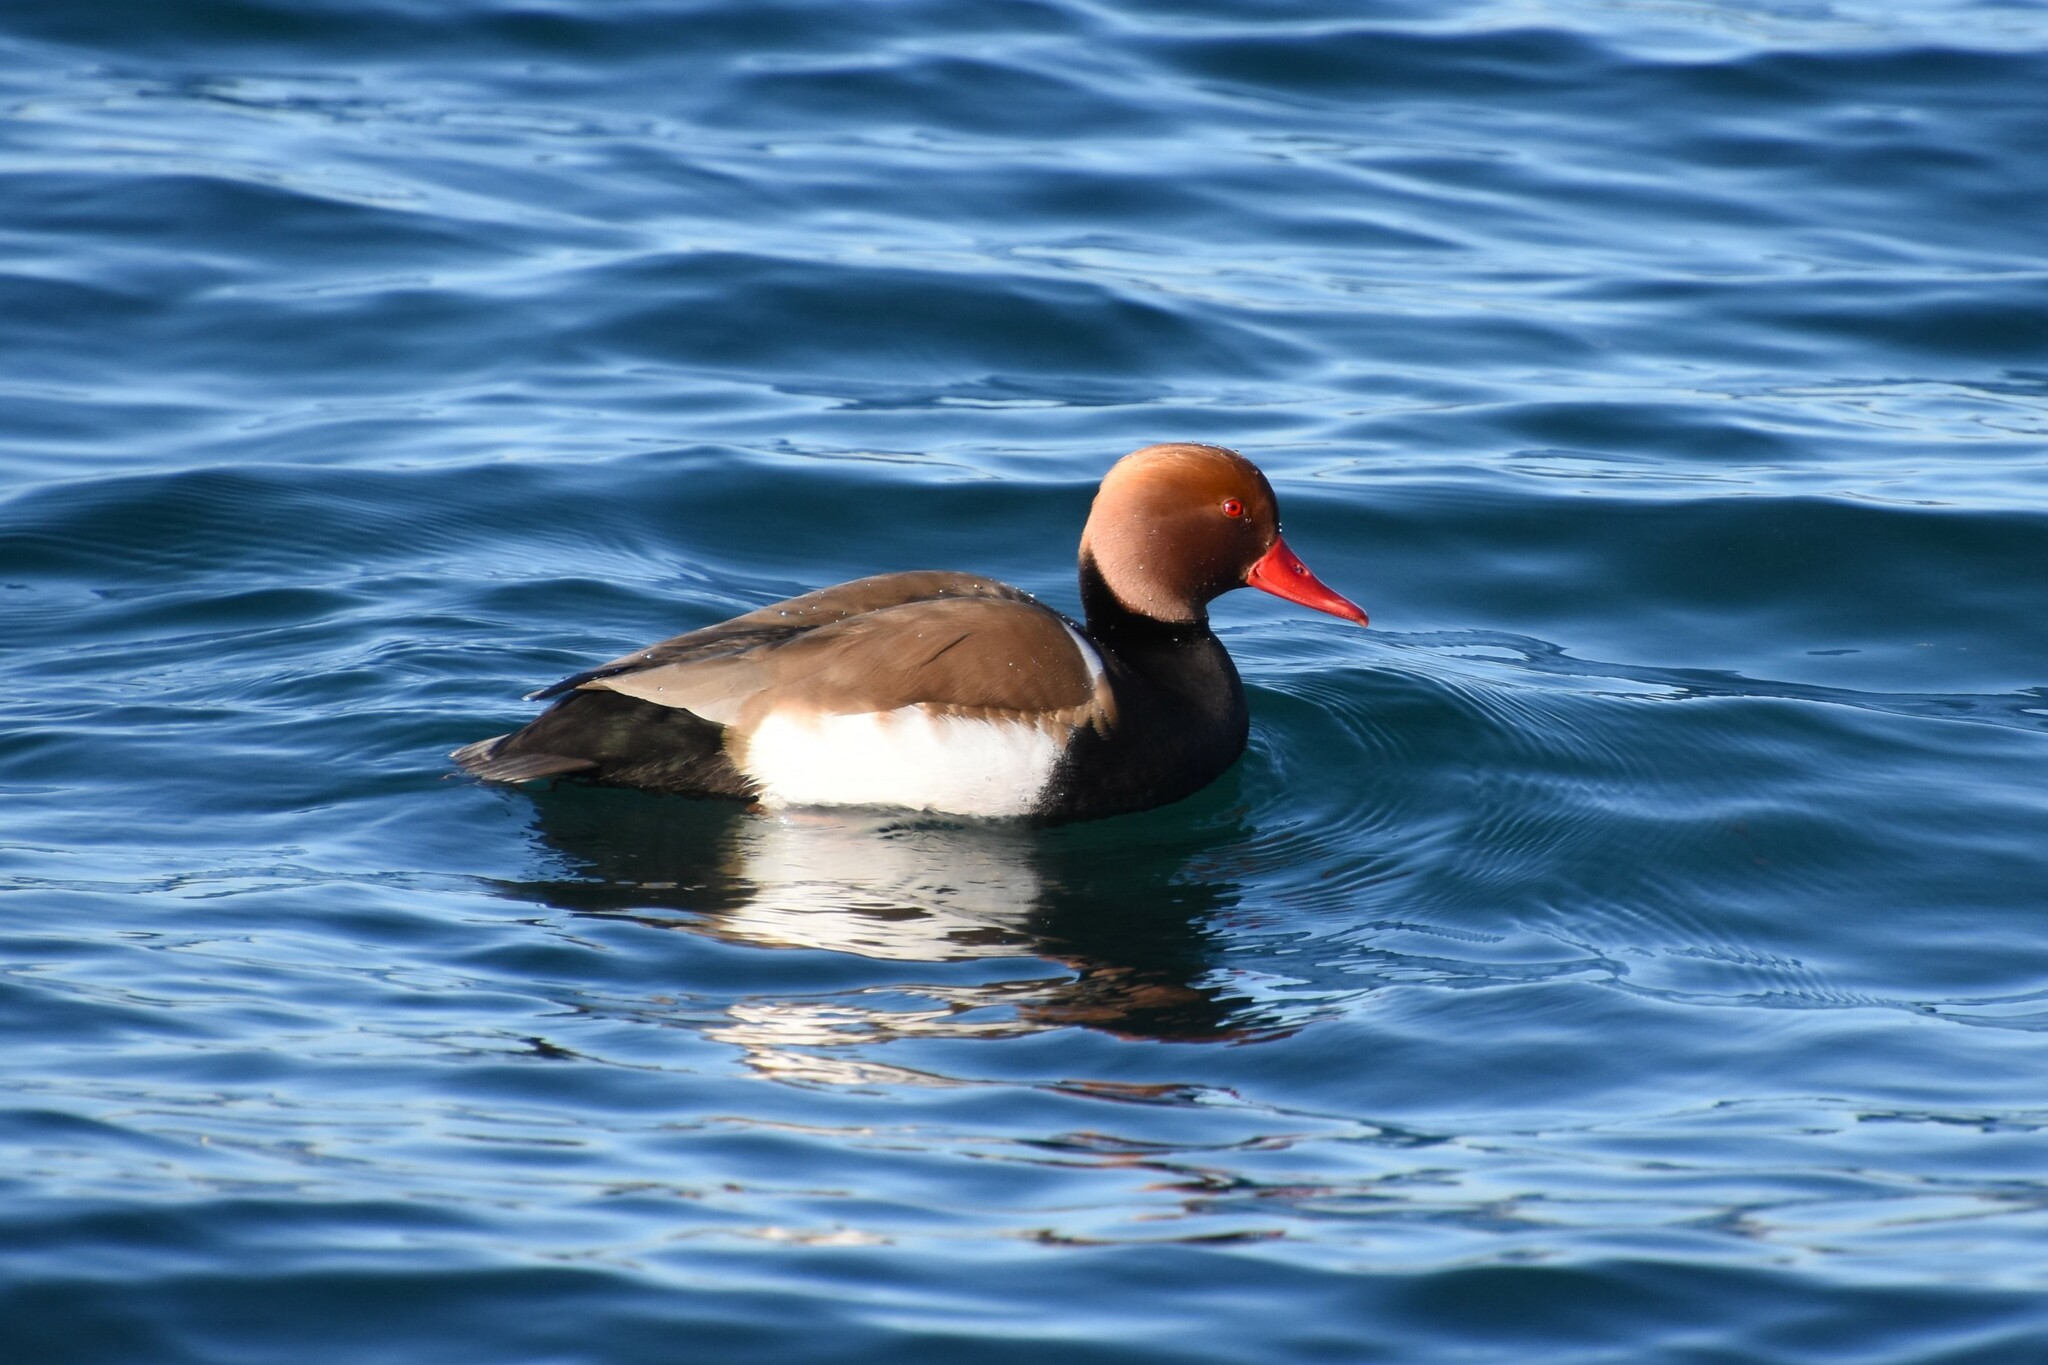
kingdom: Animalia
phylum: Chordata
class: Aves
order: Anseriformes
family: Anatidae
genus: Netta
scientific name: Netta rufina
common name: Red-crested pochard
